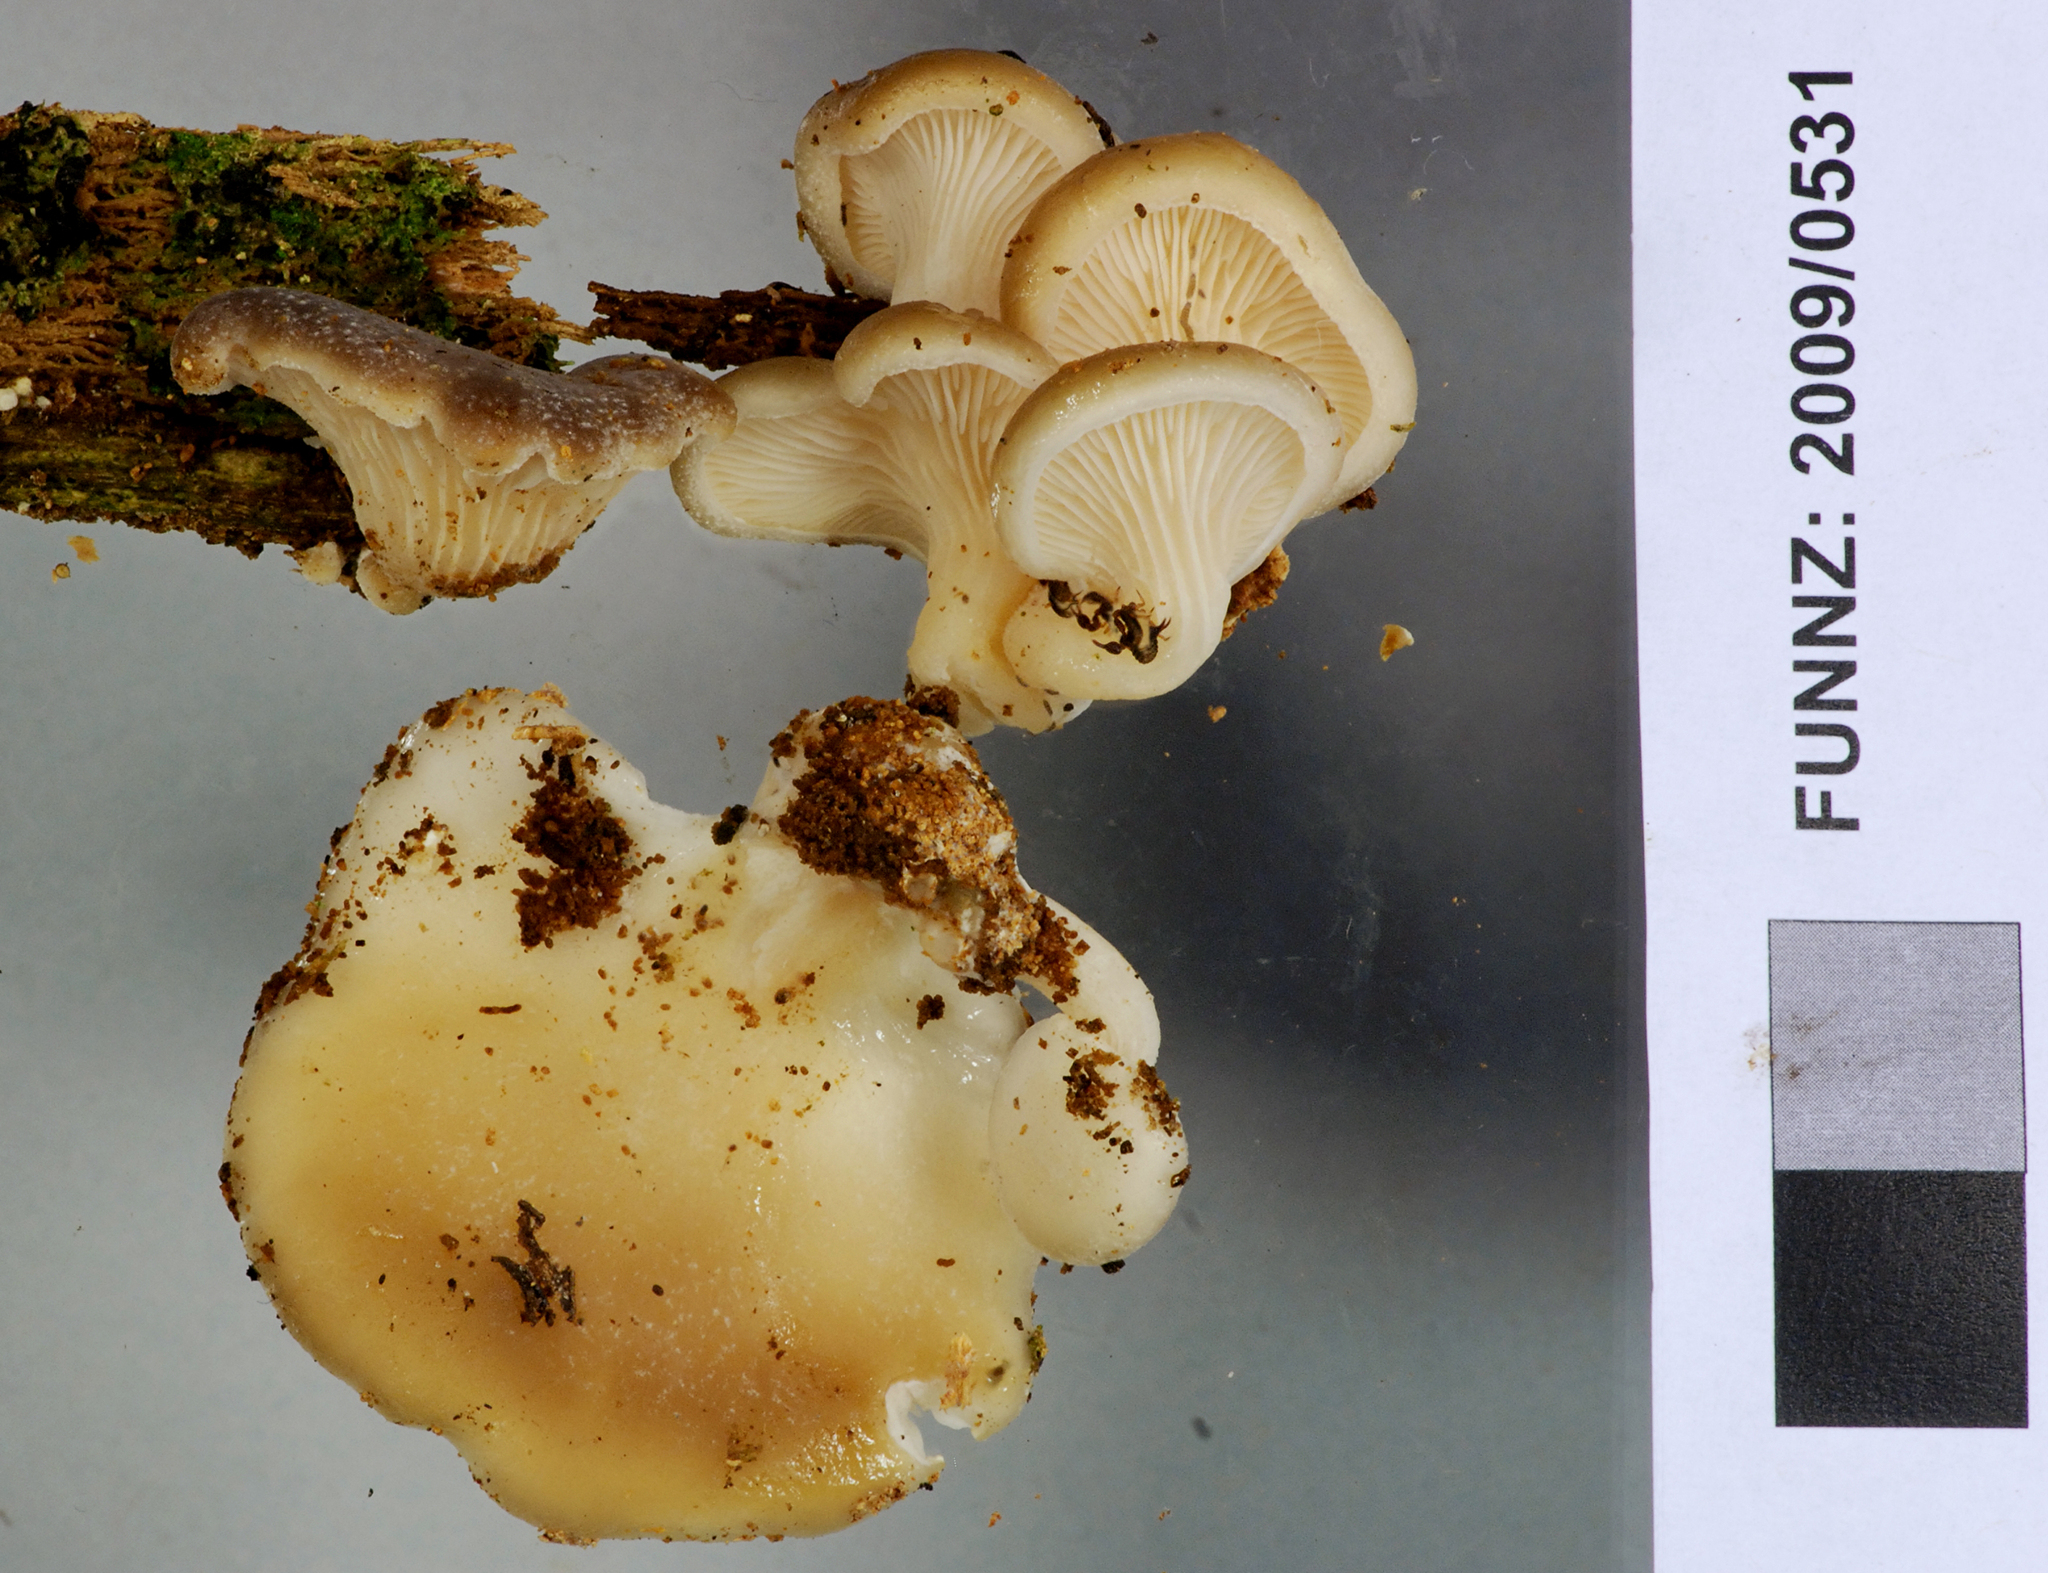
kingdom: Fungi
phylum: Basidiomycota
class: Agaricomycetes
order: Agaricales
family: Pleurotaceae
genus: Hohenbuehelia
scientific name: Hohenbuehelia luteola
